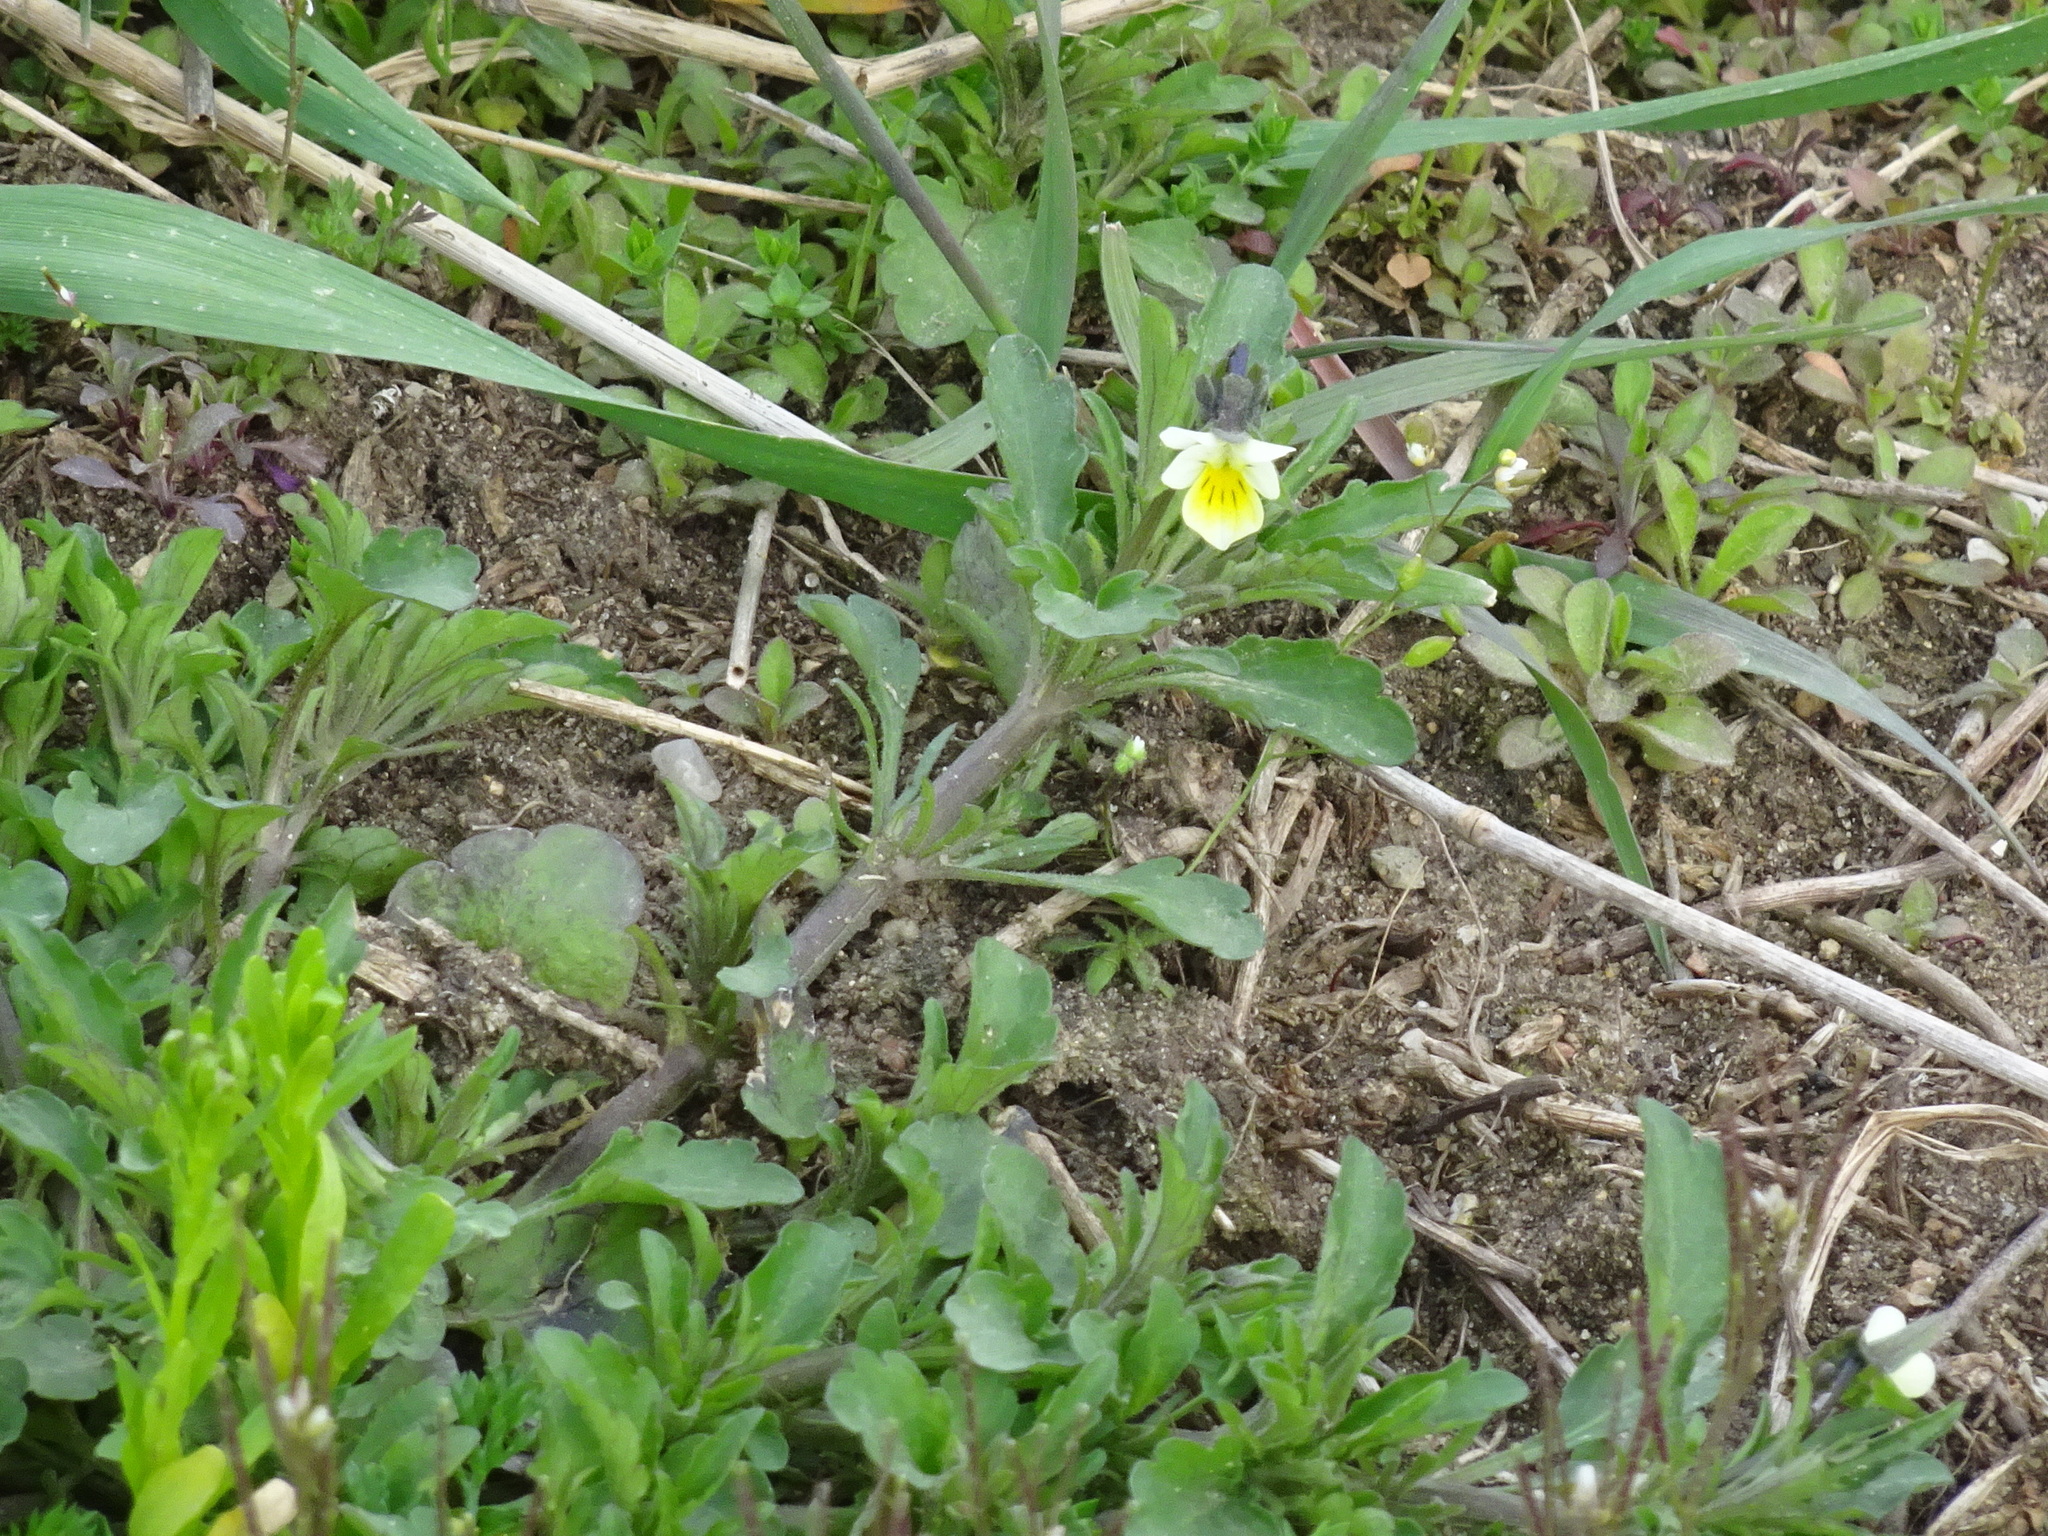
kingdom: Plantae
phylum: Tracheophyta
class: Magnoliopsida
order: Malpighiales
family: Violaceae
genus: Viola
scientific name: Viola arvensis
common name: Field pansy
